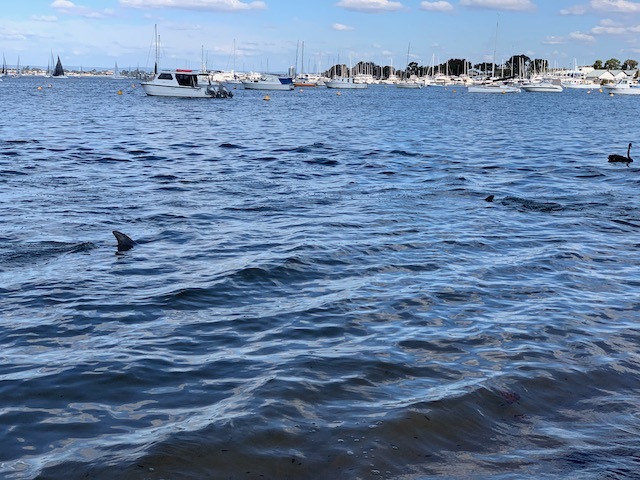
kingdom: Animalia
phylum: Chordata
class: Mammalia
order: Cetacea
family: Delphinidae
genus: Tursiops
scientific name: Tursiops aduncus
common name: Indo-pacific bottlenose dolphin
